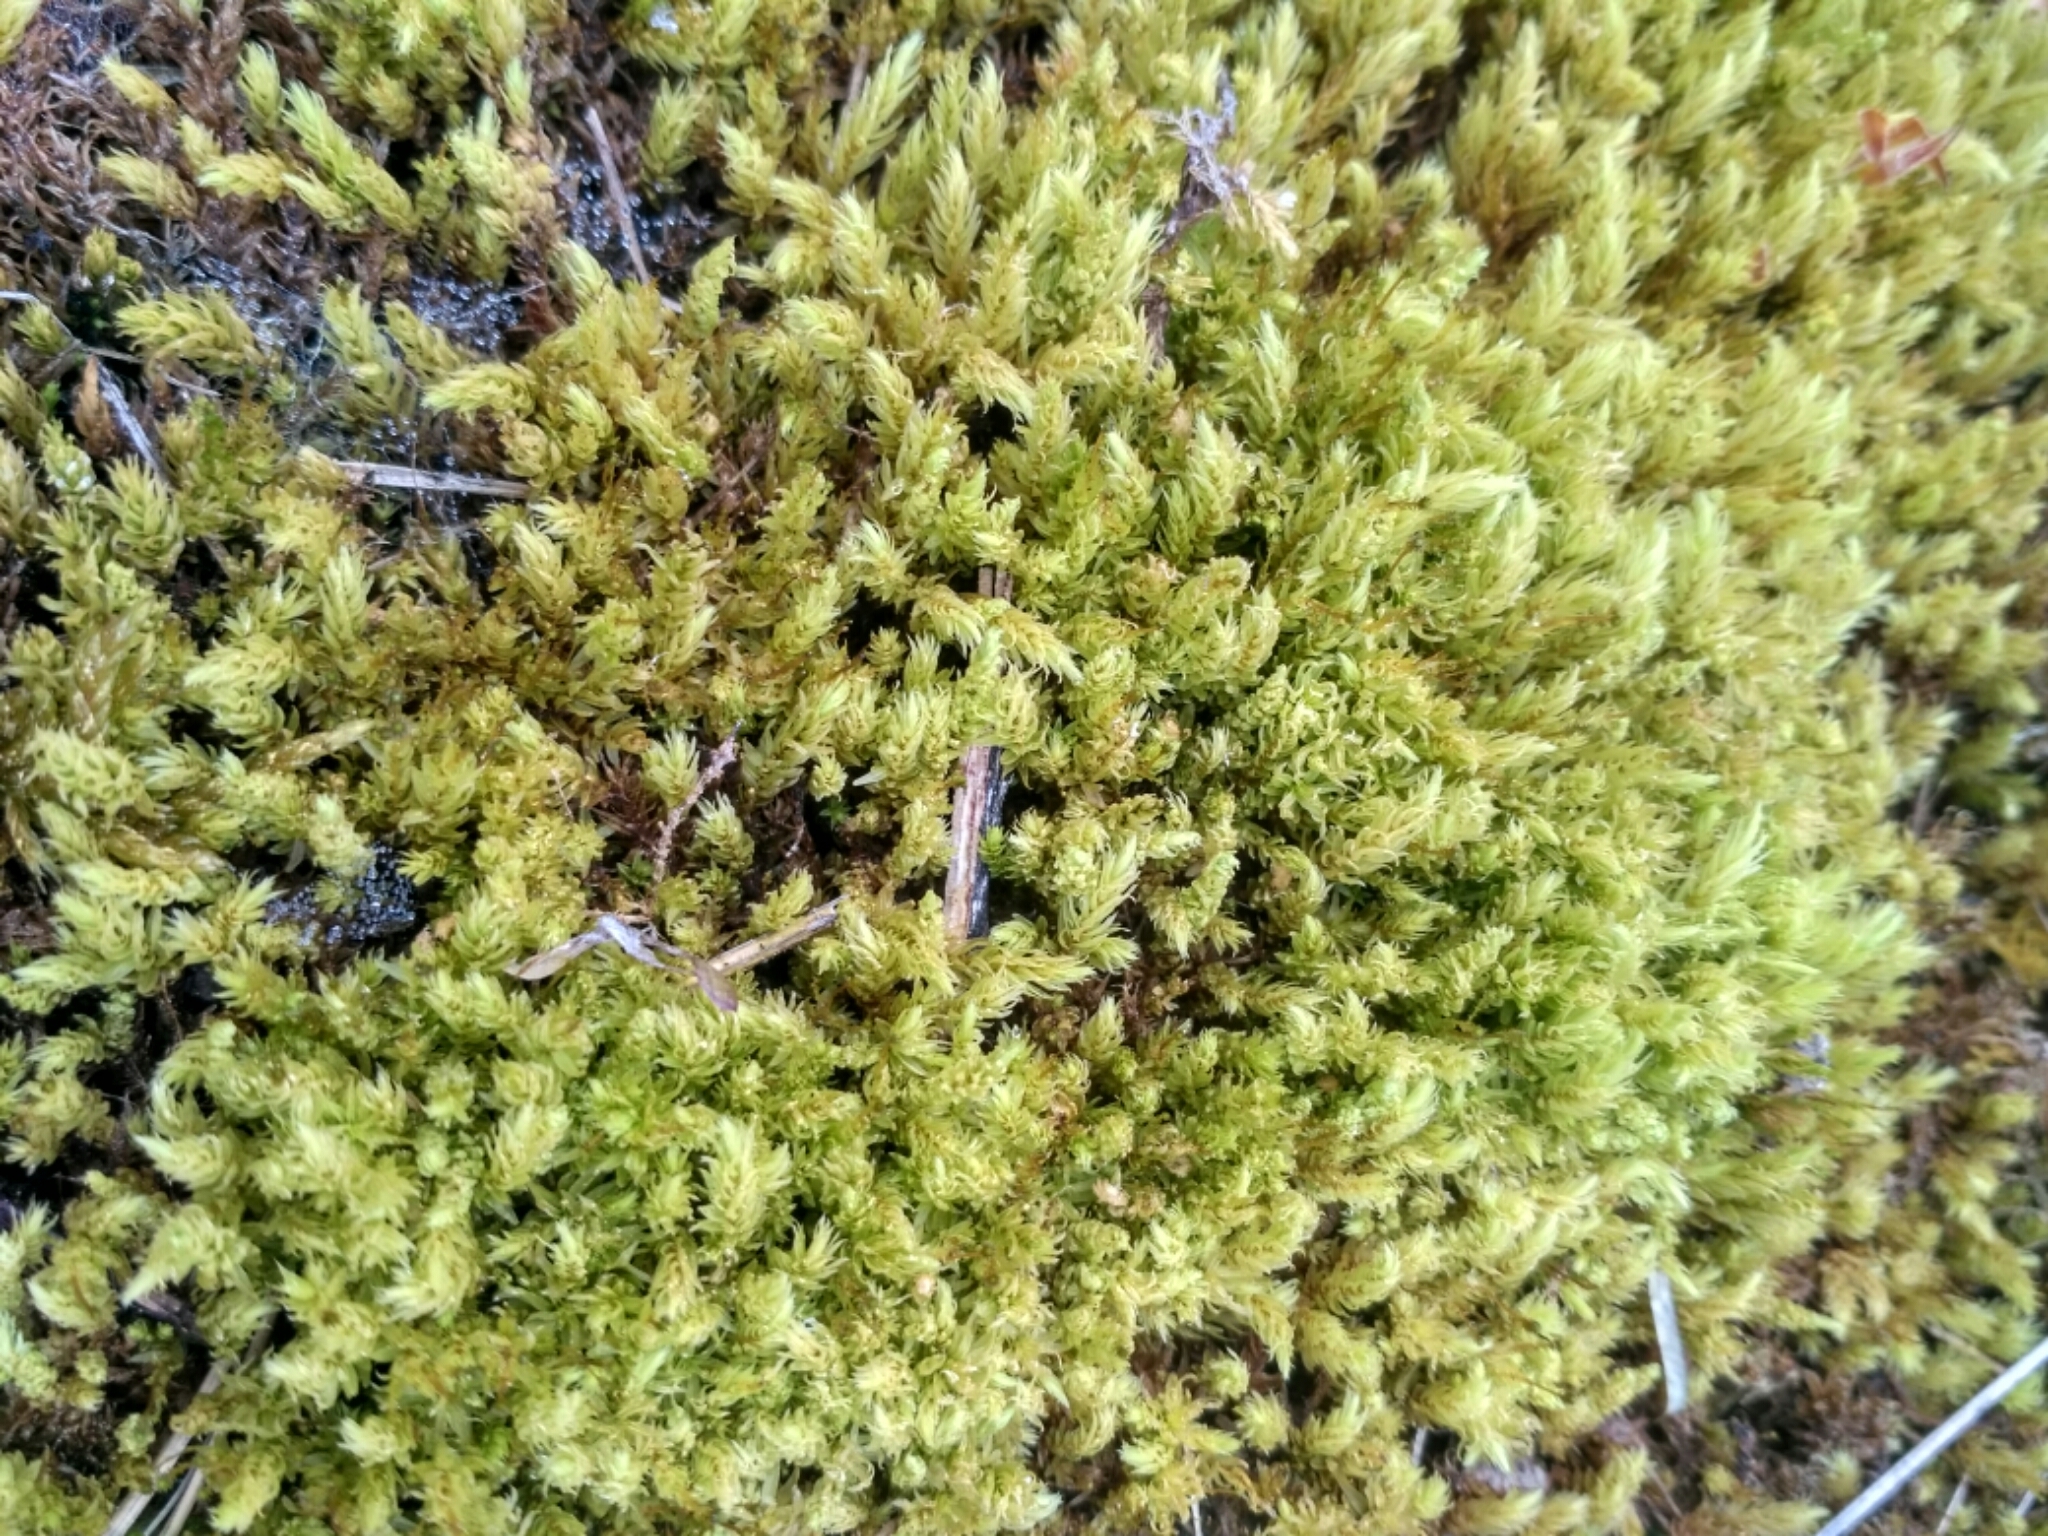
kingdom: Plantae
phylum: Bryophyta
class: Bryopsida
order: Aulacomniales
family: Aulacomniaceae
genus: Aulacomnium
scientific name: Aulacomnium palustre
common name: Bog groove-moss
